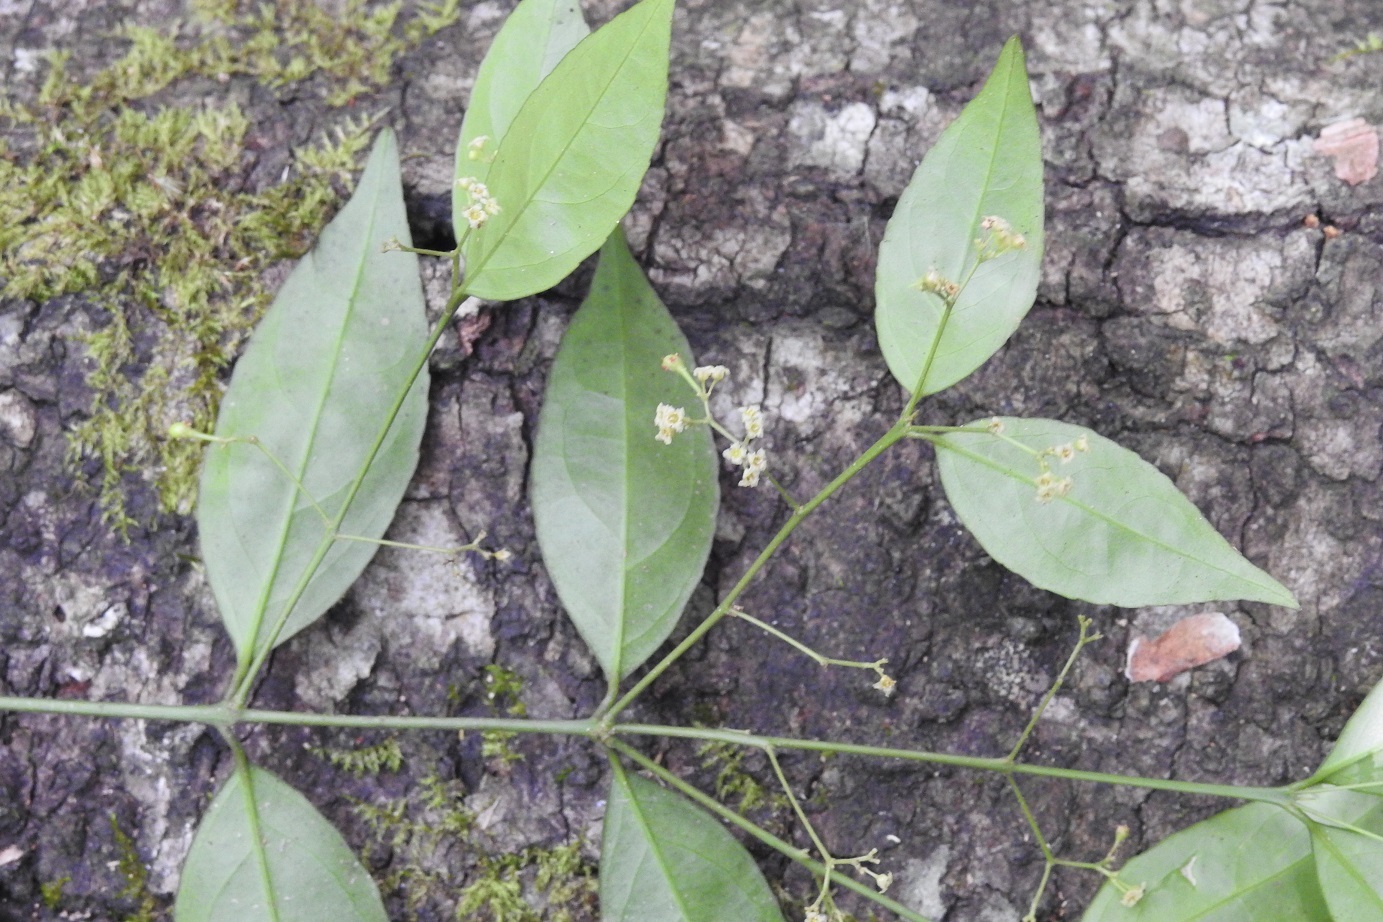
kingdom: Plantae
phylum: Tracheophyta
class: Magnoliopsida
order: Celastrales
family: Celastraceae
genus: Crossopetalum
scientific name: Crossopetalum parviflorum
